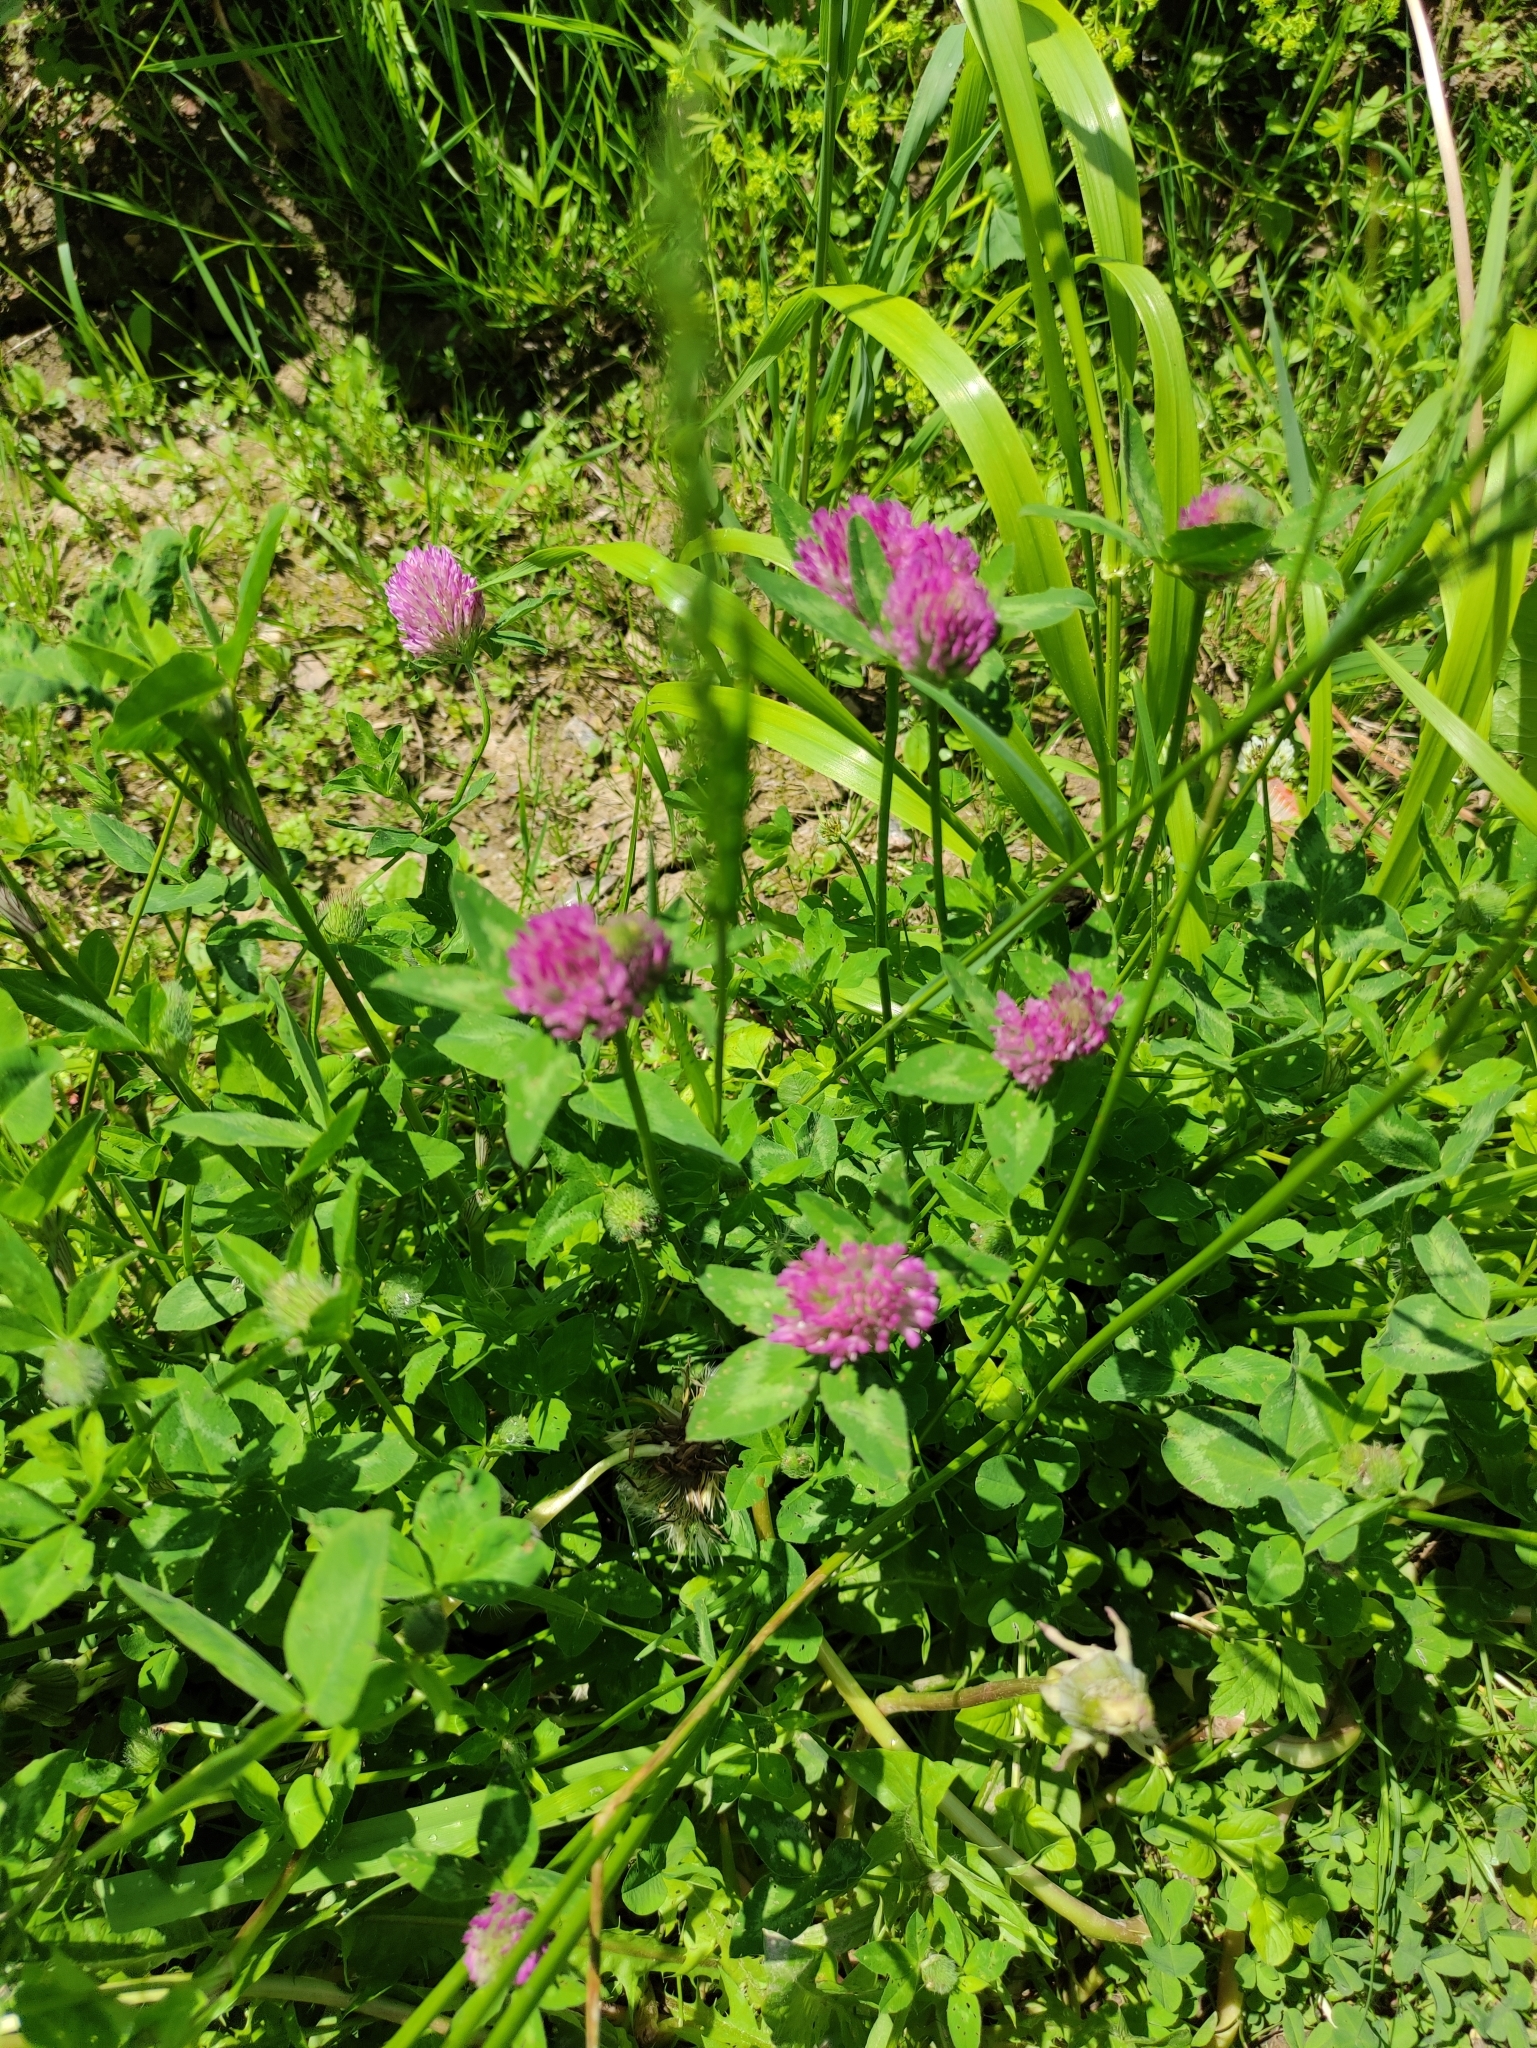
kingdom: Plantae
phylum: Tracheophyta
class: Magnoliopsida
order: Fabales
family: Fabaceae
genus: Trifolium
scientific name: Trifolium pratense
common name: Red clover
